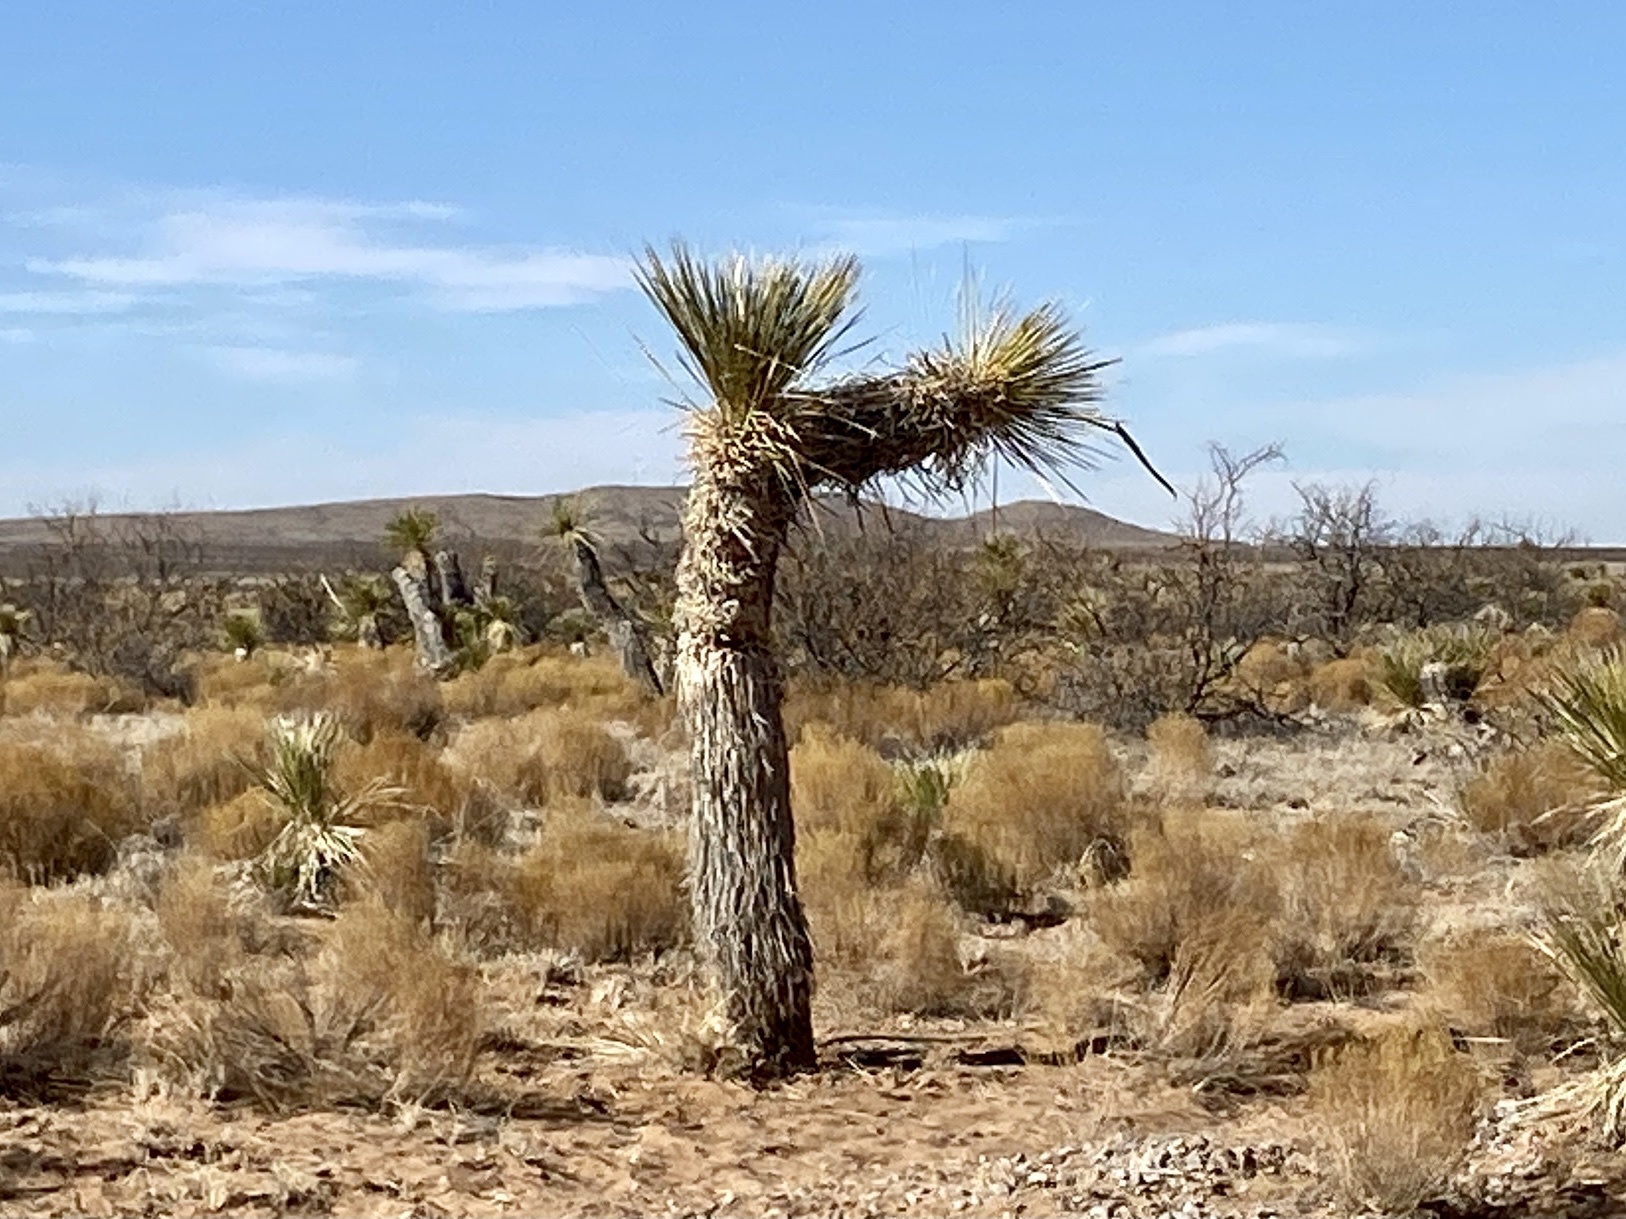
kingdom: Plantae
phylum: Tracheophyta
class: Liliopsida
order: Asparagales
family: Asparagaceae
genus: Yucca
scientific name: Yucca elata
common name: Palmella
